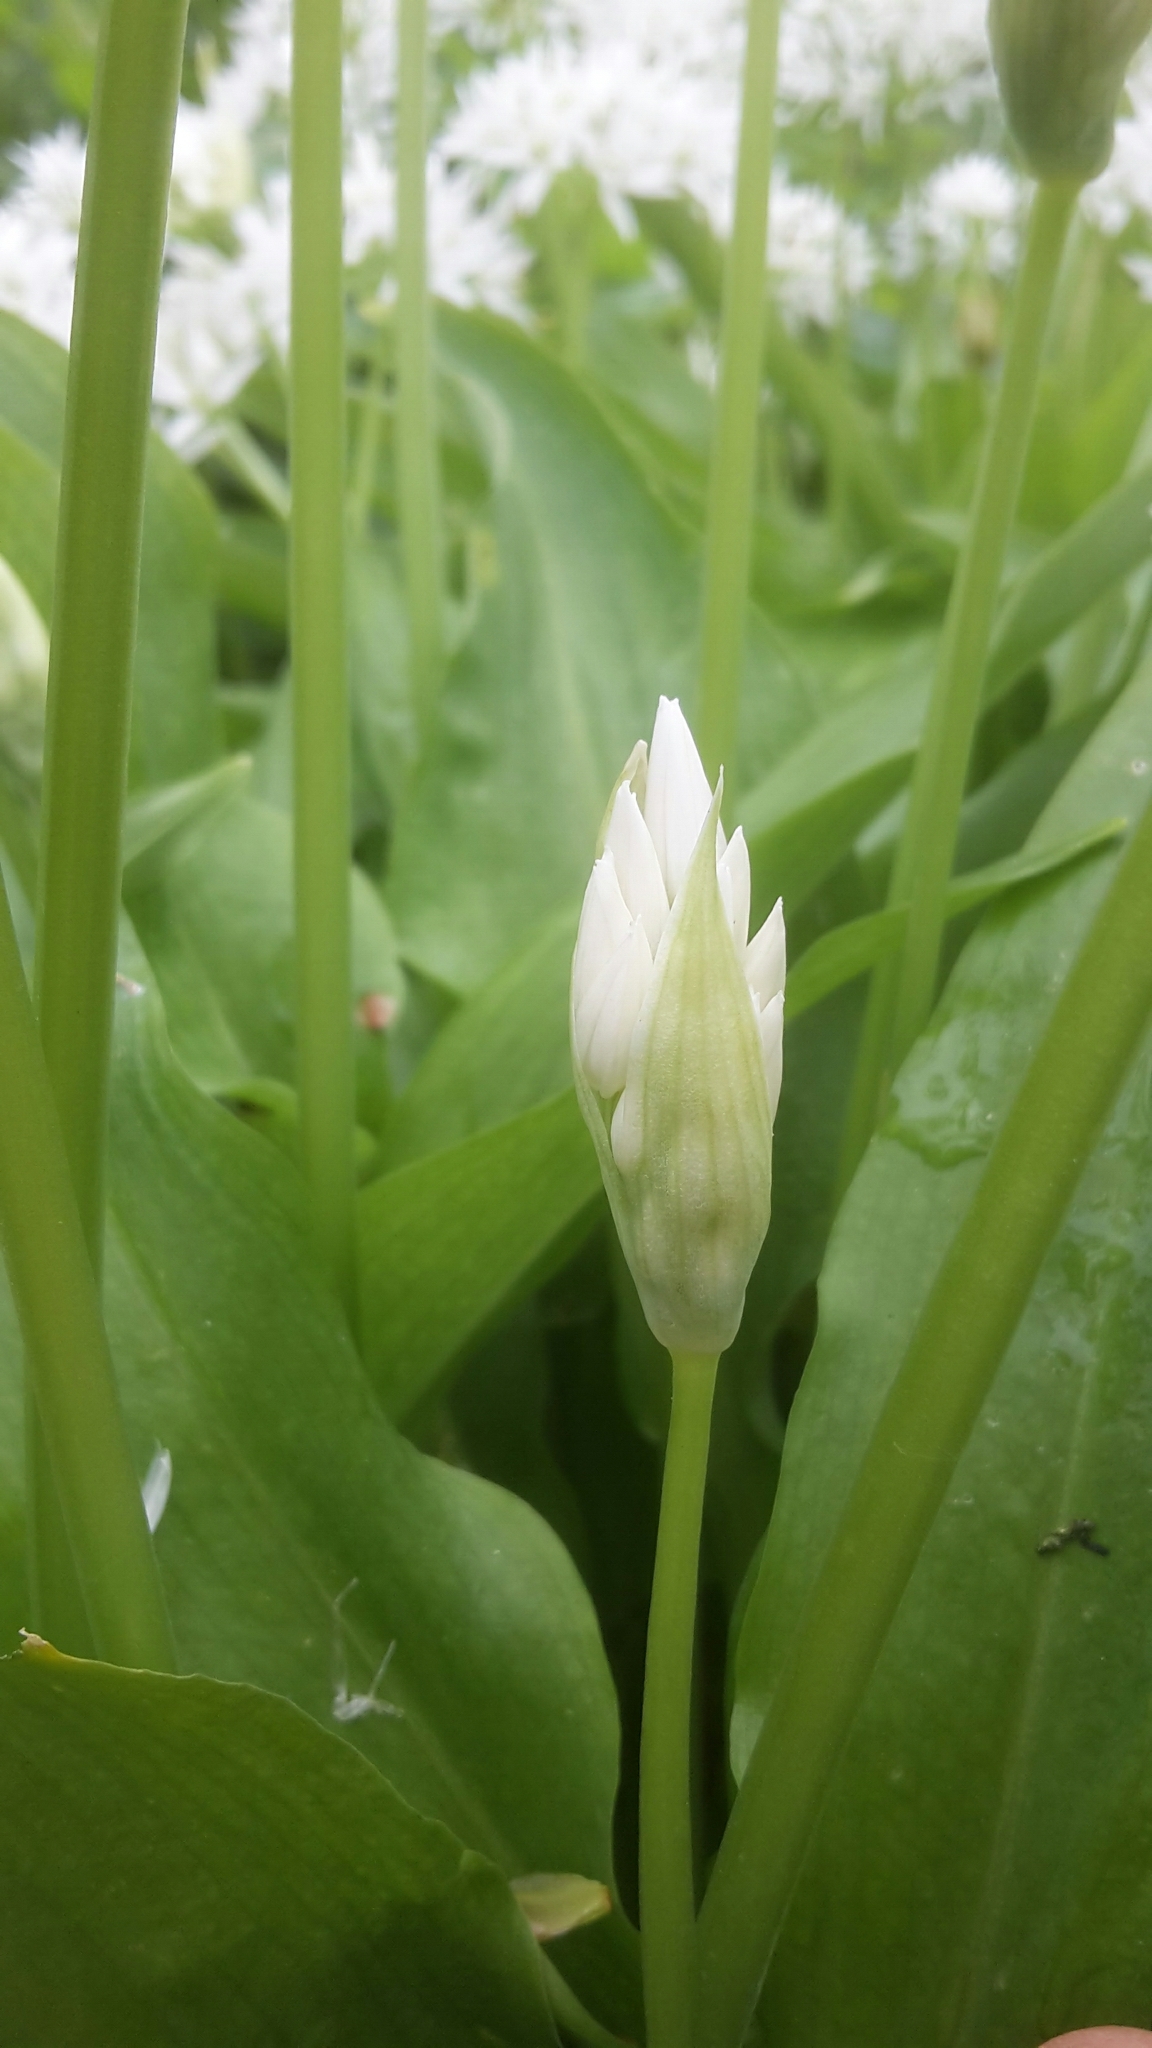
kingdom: Plantae
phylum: Tracheophyta
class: Liliopsida
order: Asparagales
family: Amaryllidaceae
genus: Allium
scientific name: Allium ursinum
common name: Ramsons
